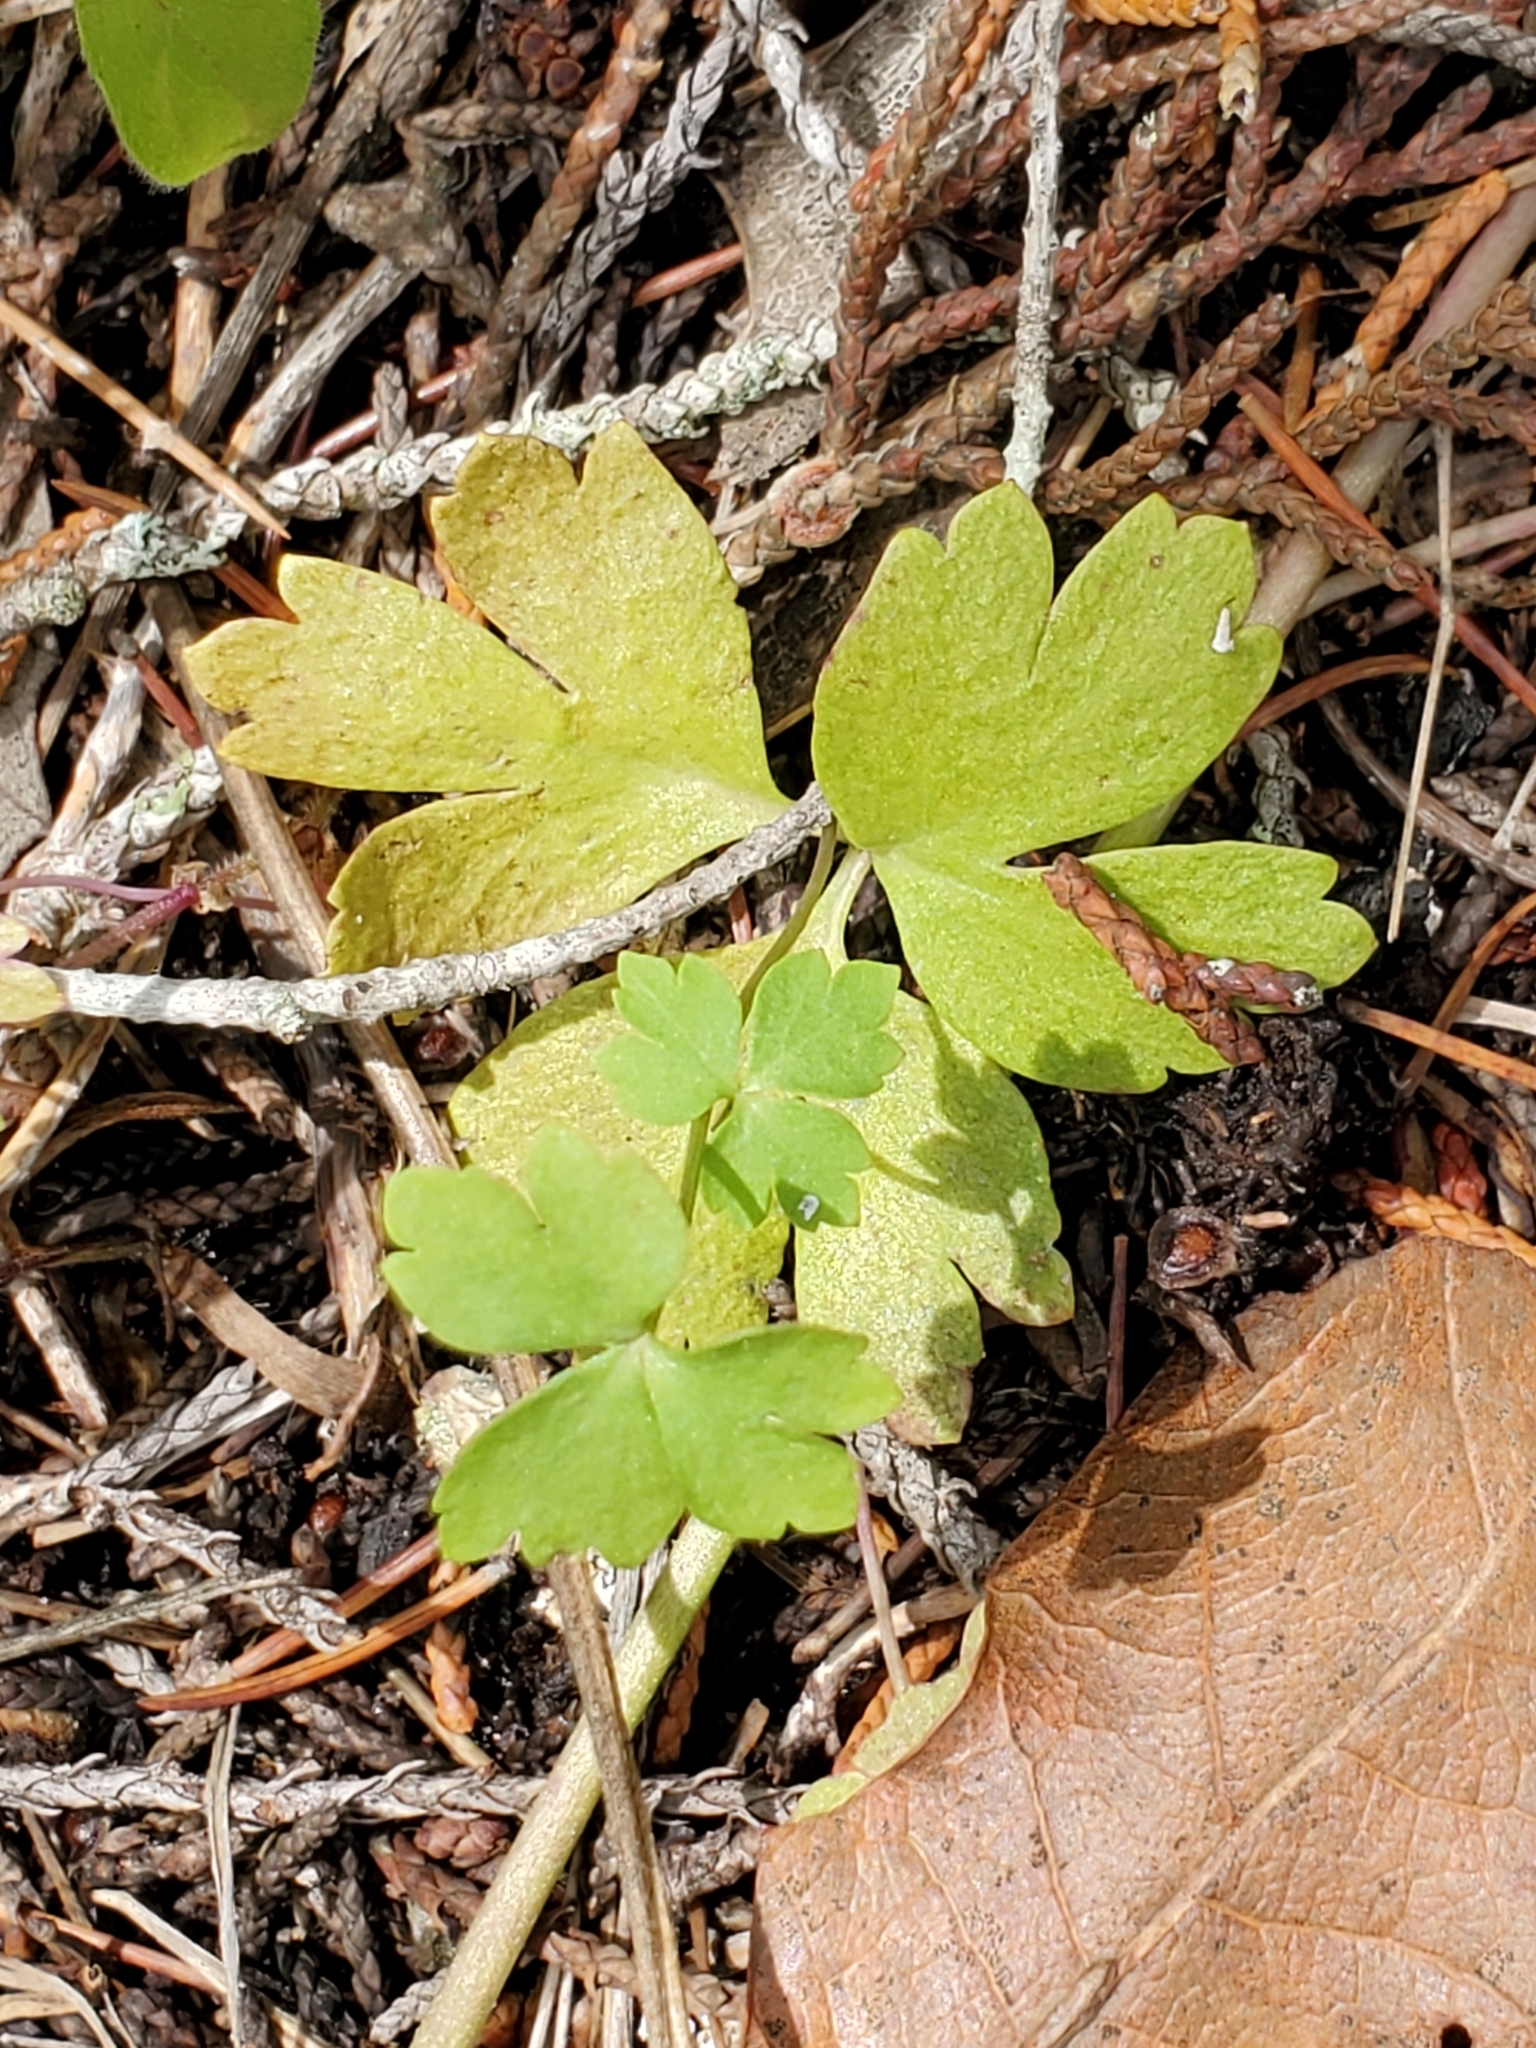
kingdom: Plantae
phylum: Tracheophyta
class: Magnoliopsida
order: Ranunculales
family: Ranunculaceae
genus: Anemone
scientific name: Anemone edwardsiana
